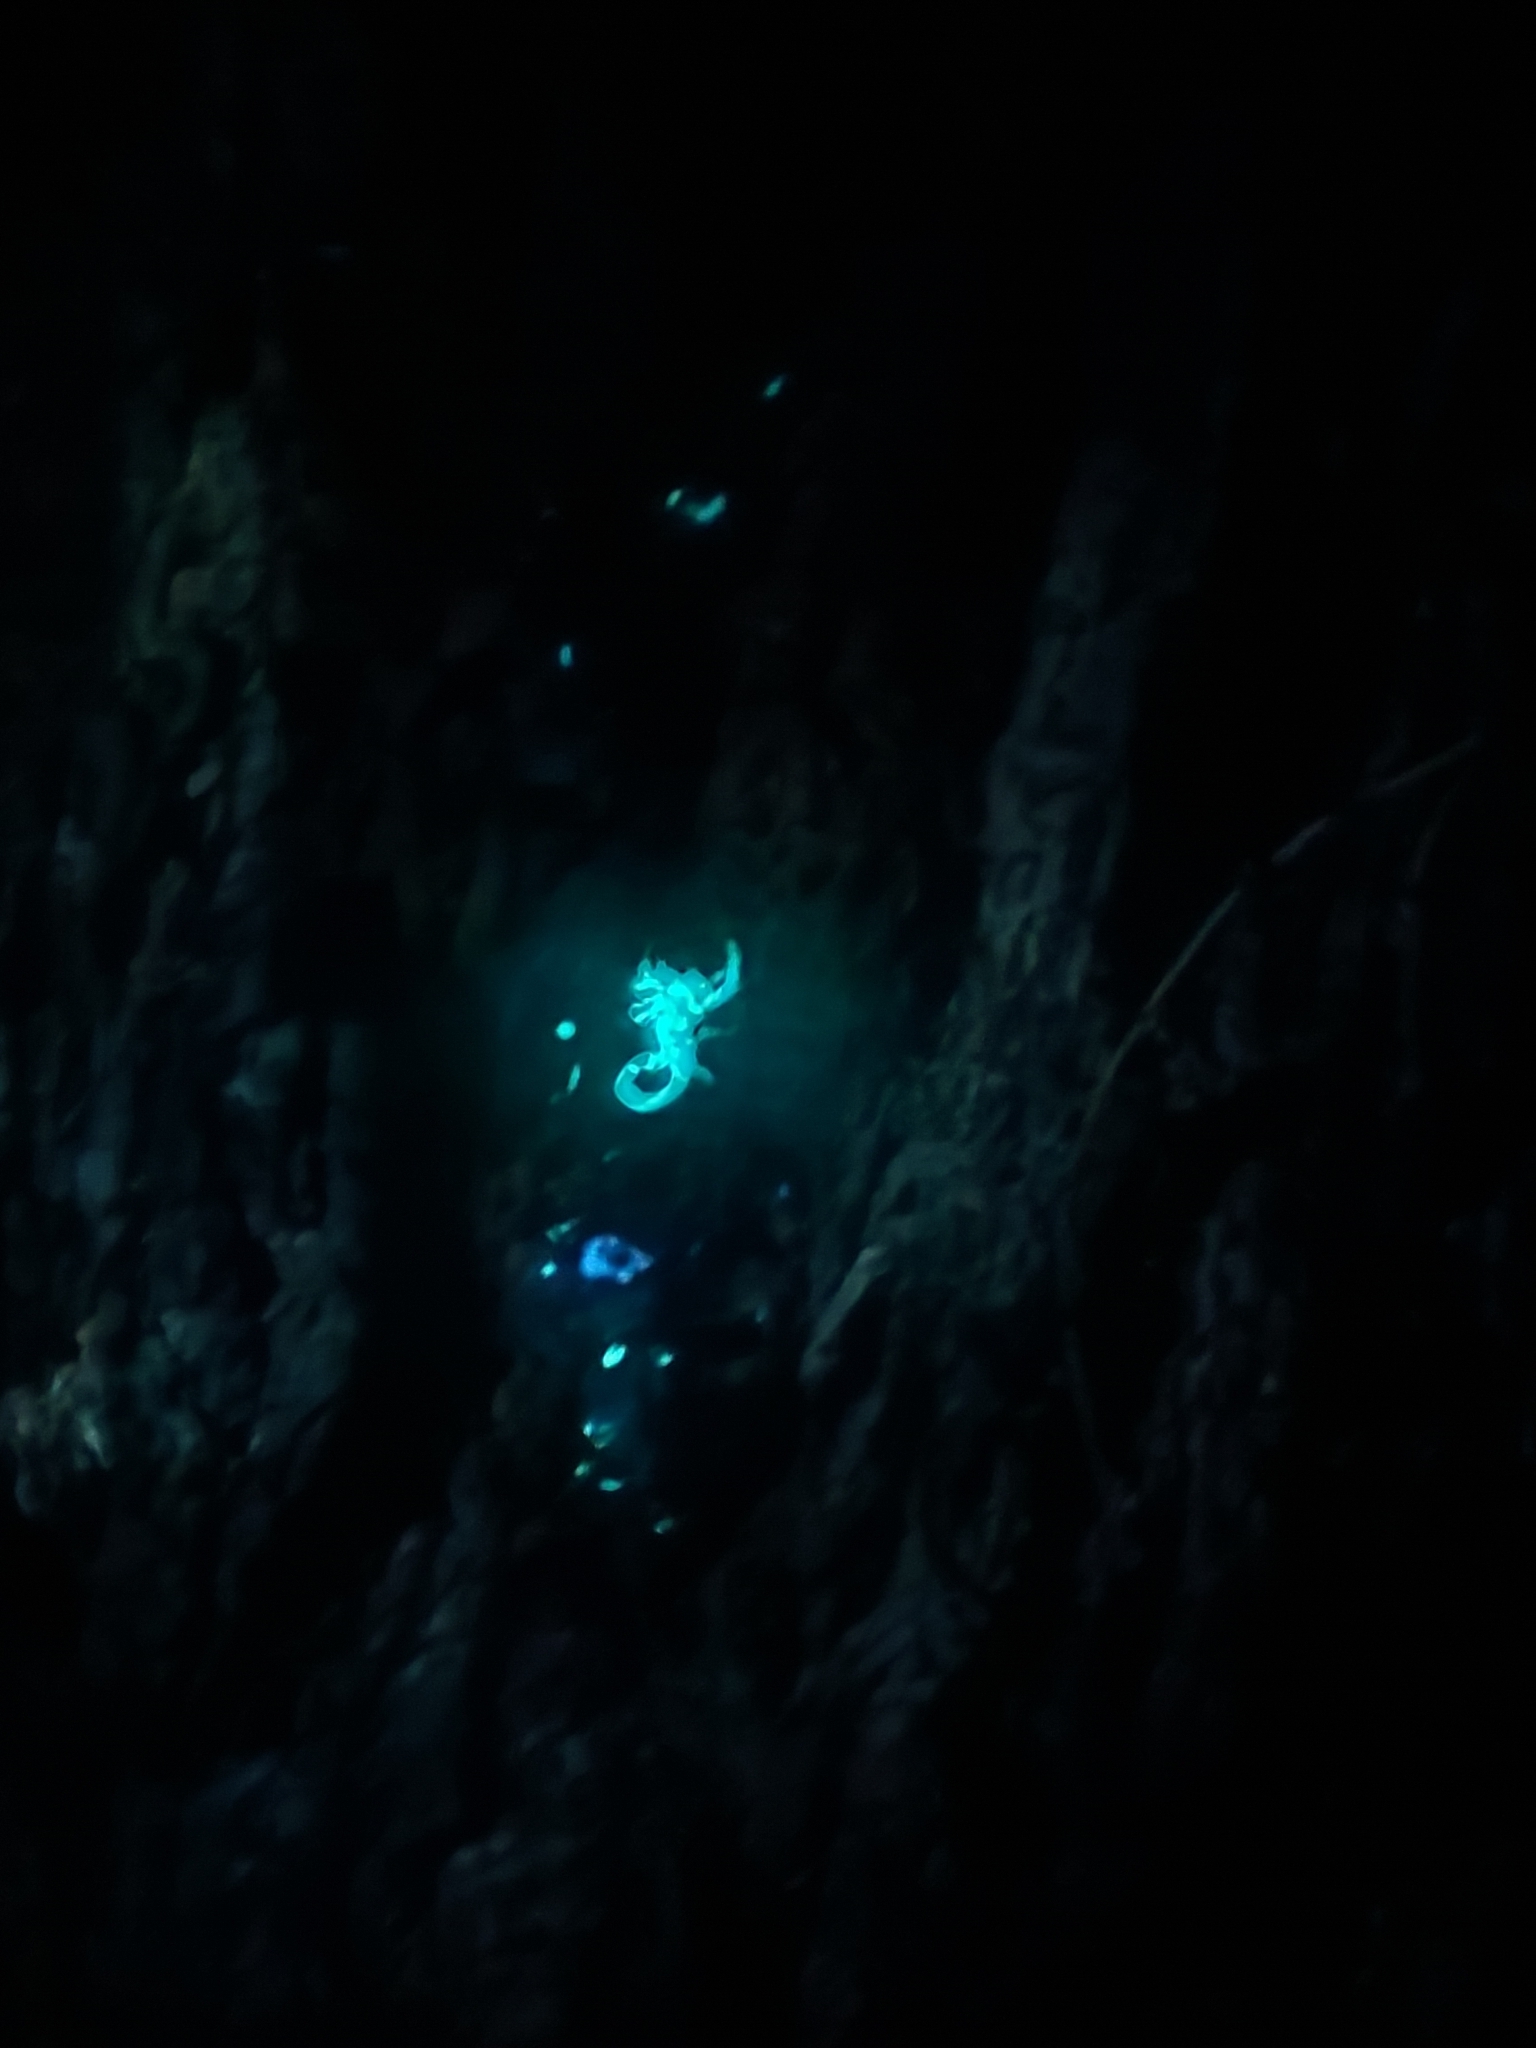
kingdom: Animalia
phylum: Arthropoda
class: Arachnida
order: Scorpiones
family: Buthidae
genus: Isometrus
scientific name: Isometrus maculatus
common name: Scorpions
